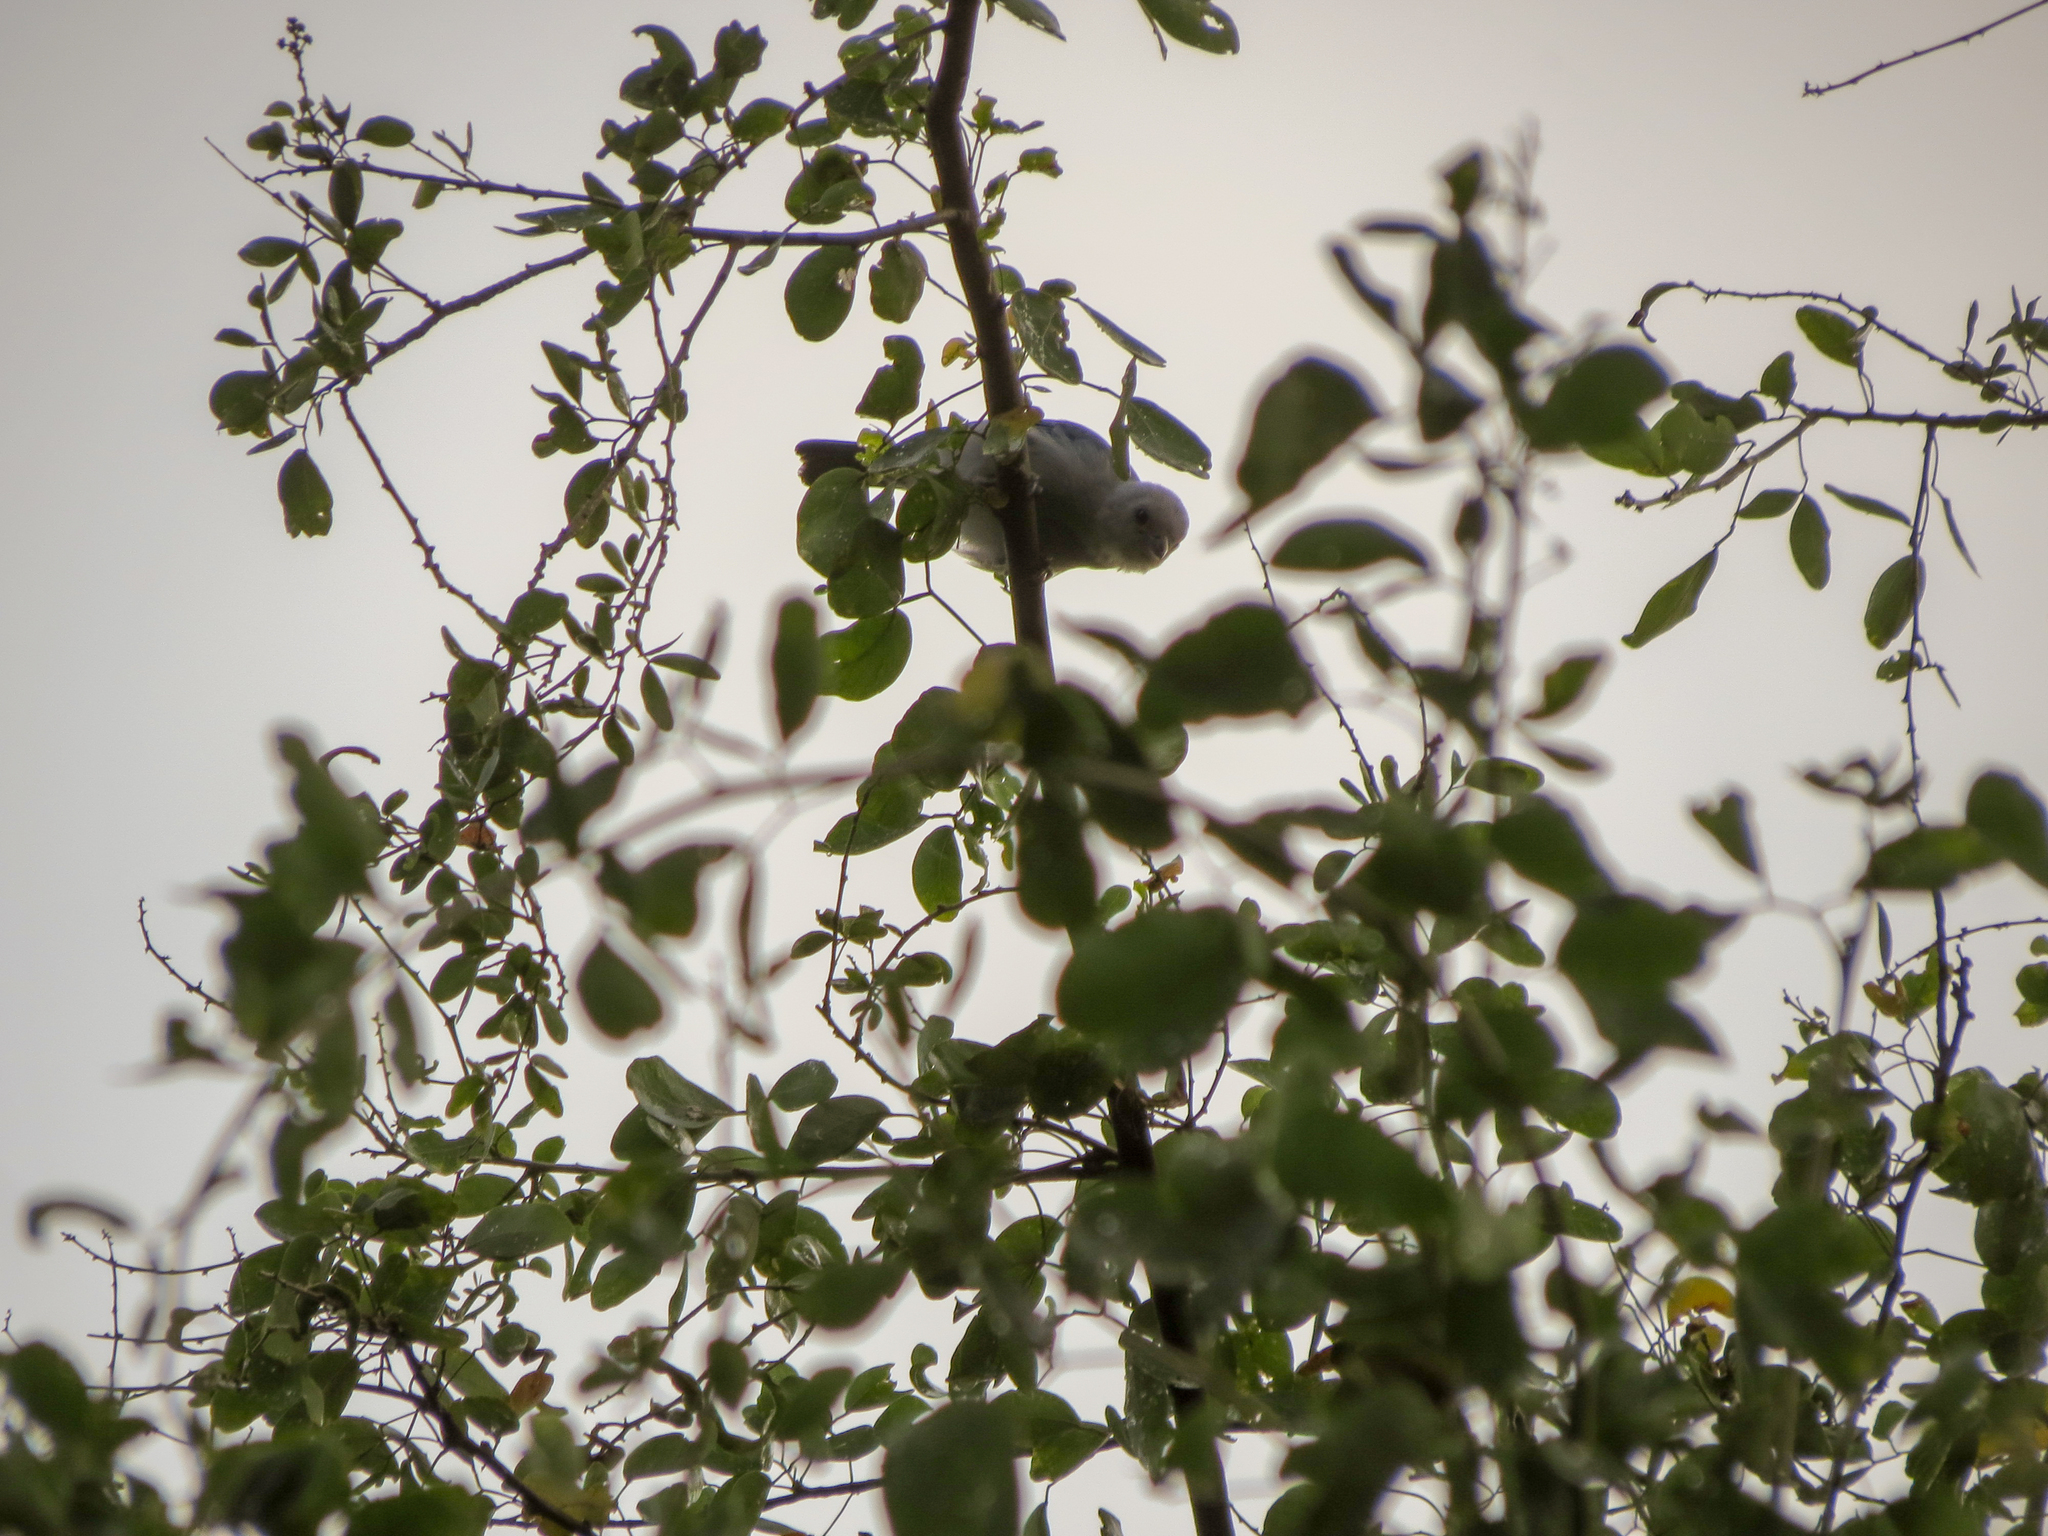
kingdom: Animalia
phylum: Chordata
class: Aves
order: Passeriformes
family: Thraupidae
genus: Thraupis
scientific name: Thraupis episcopus
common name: Blue-grey tanager
